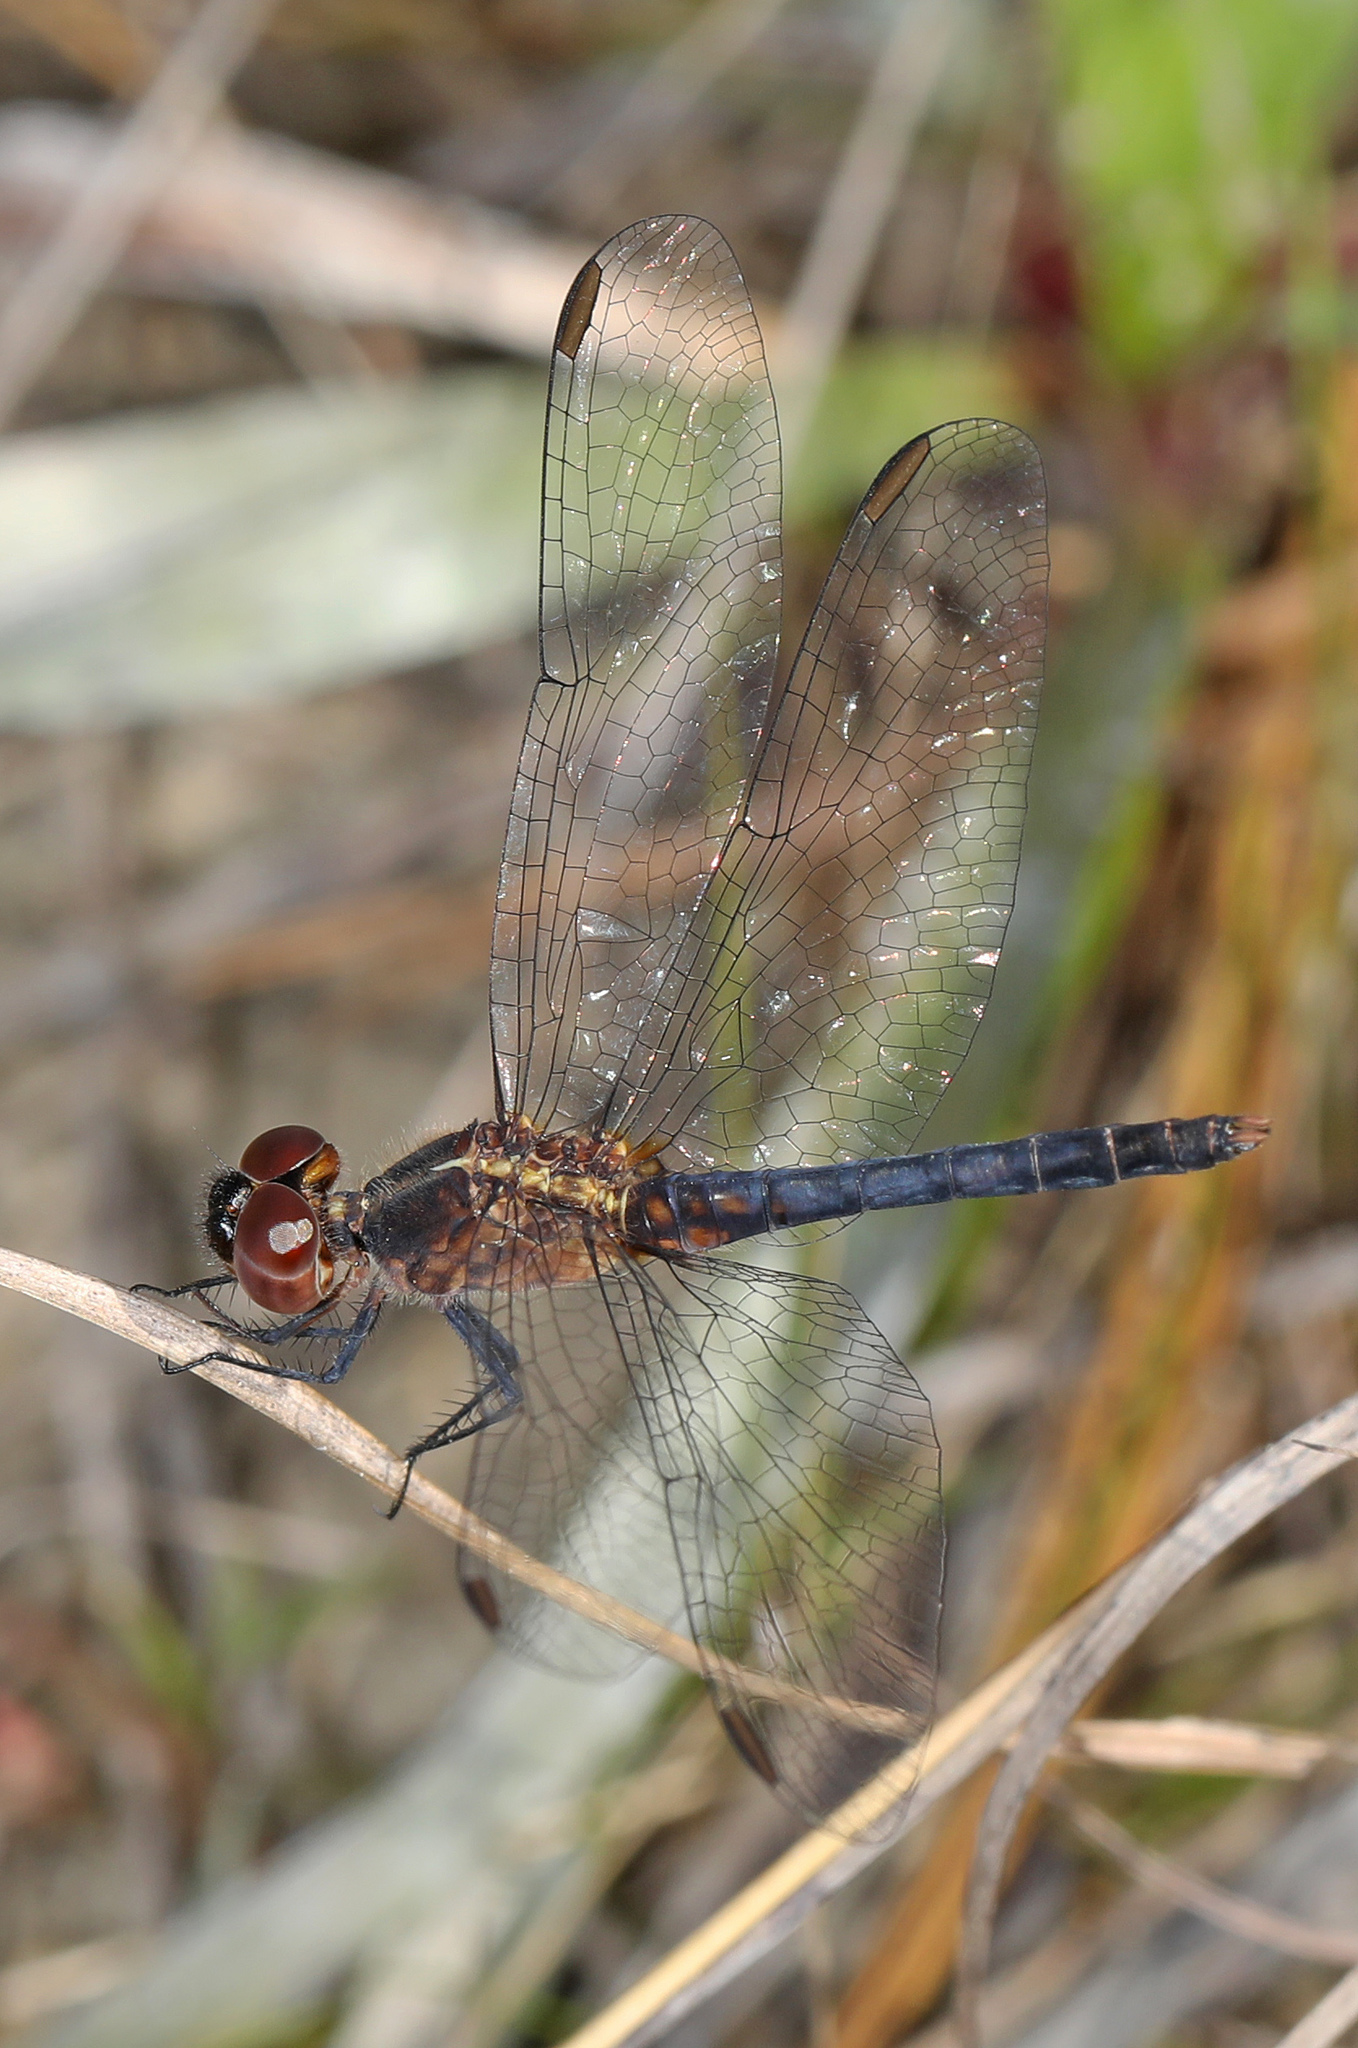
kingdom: Animalia
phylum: Arthropoda
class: Insecta
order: Odonata
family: Libellulidae
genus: Erythrodiplax
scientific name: Erythrodiplax minuscula
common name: Little blue dragonlet
